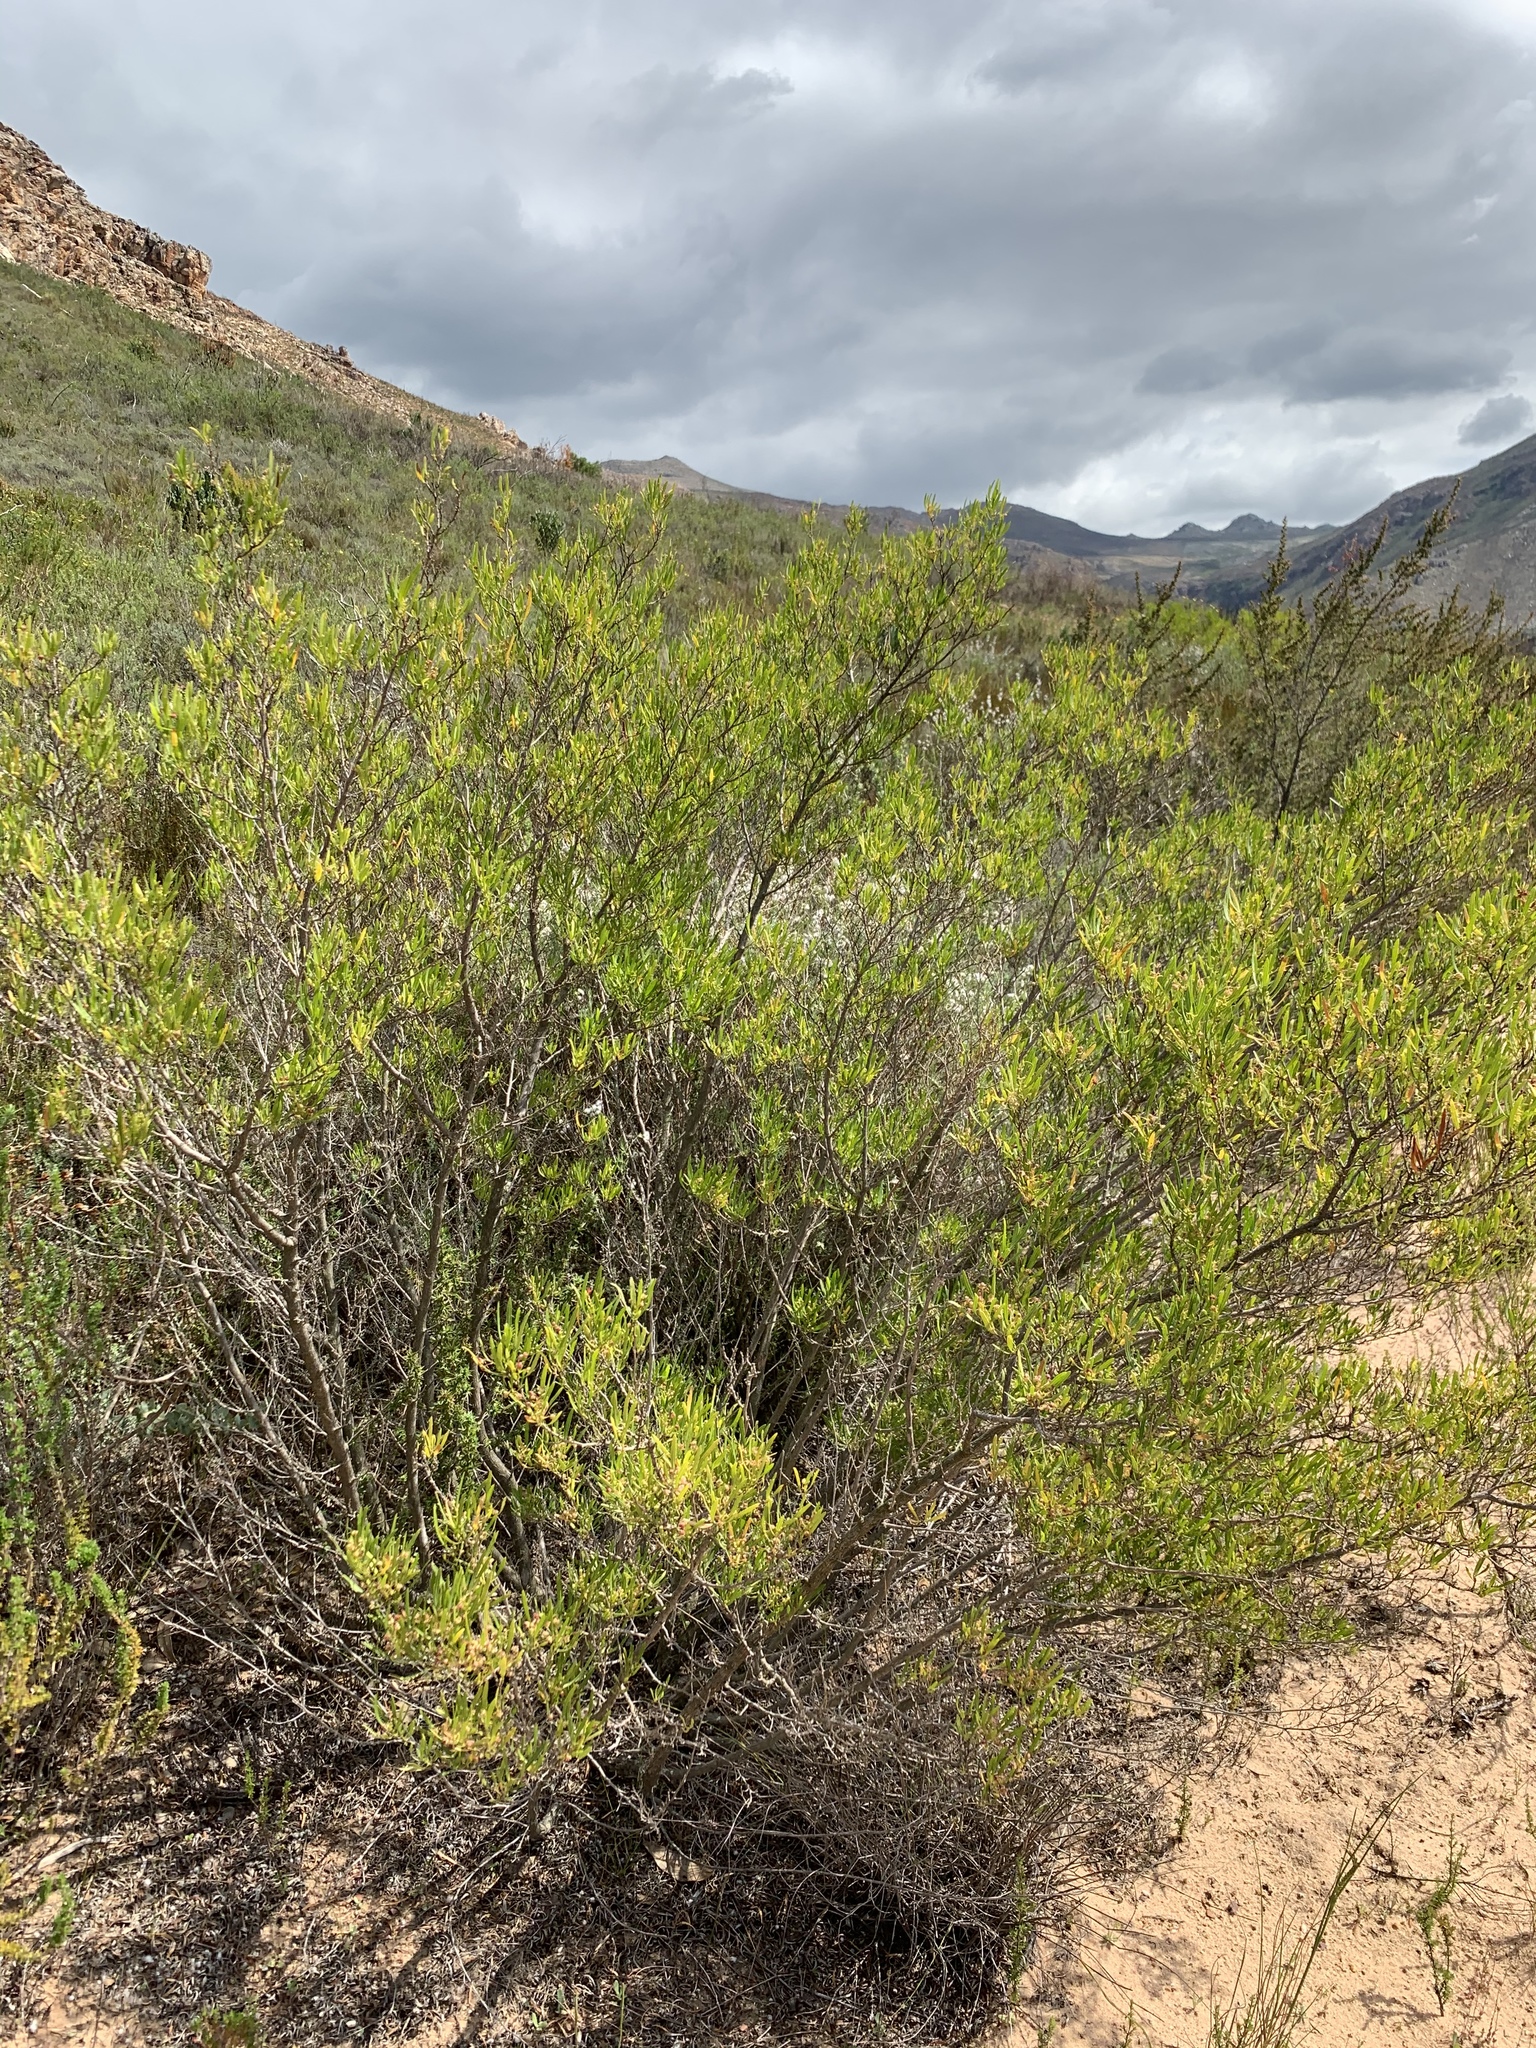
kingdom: Plantae
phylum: Tracheophyta
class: Magnoliopsida
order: Sapindales
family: Sapindaceae
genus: Dodonaea
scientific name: Dodonaea viscosa
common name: Hopbush
